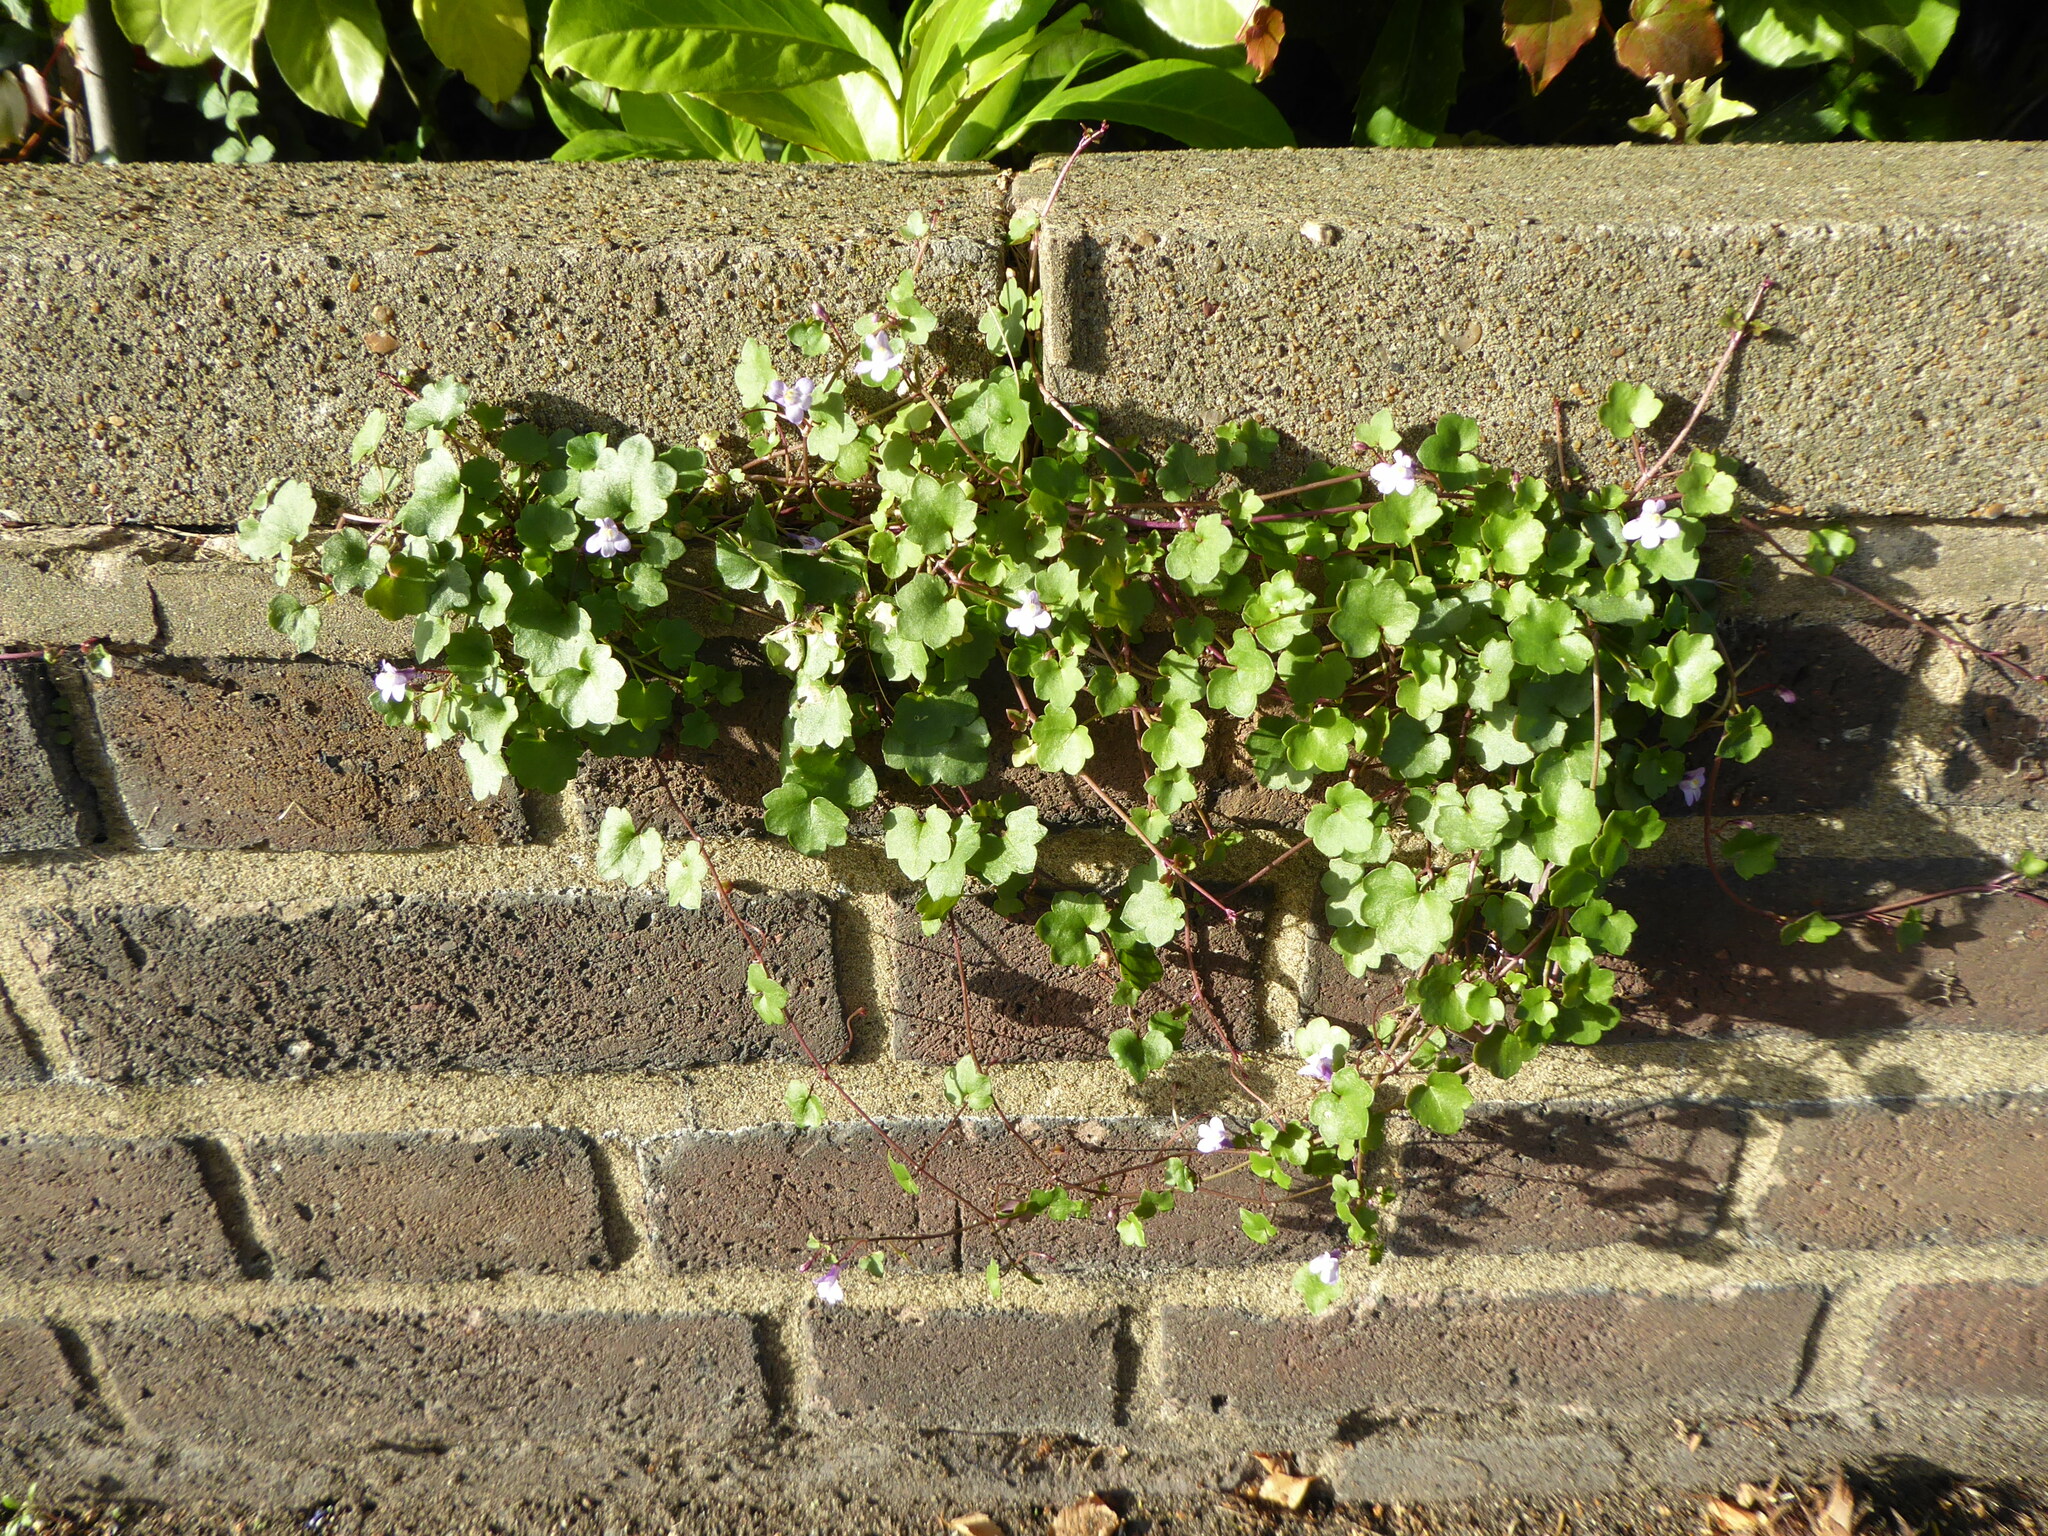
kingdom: Plantae
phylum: Tracheophyta
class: Magnoliopsida
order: Lamiales
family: Plantaginaceae
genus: Cymbalaria
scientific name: Cymbalaria muralis
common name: Ivy-leaved toadflax
